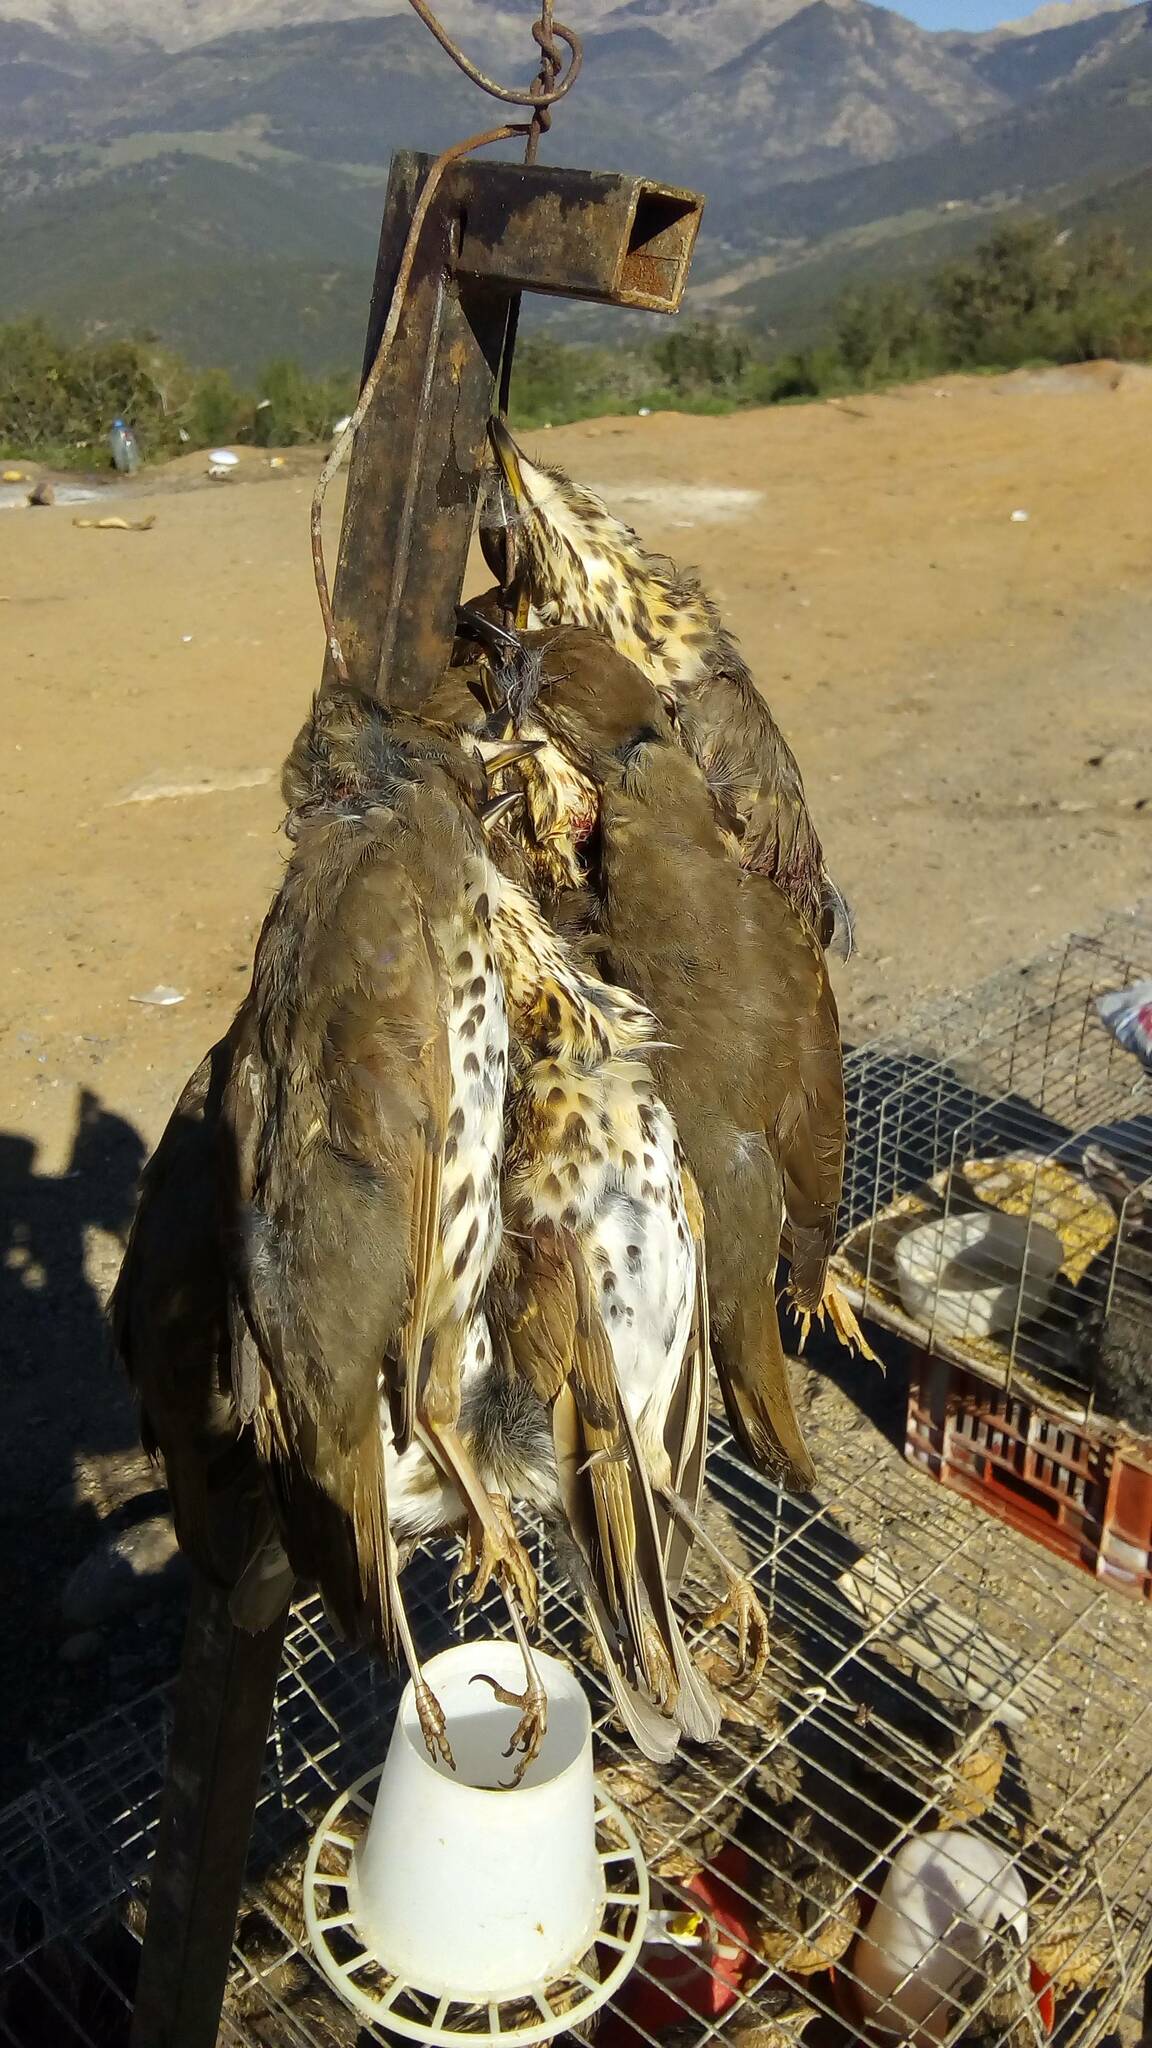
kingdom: Animalia
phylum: Chordata
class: Aves
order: Passeriformes
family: Turdidae
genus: Turdus
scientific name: Turdus viscivorus
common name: Mistle thrush
